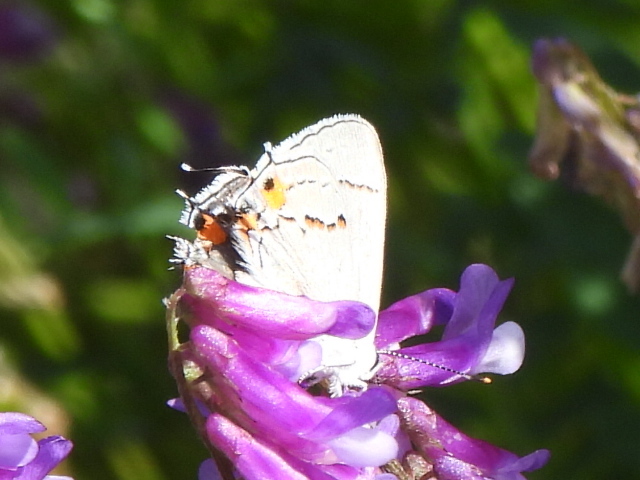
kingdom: Animalia
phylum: Arthropoda
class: Insecta
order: Lepidoptera
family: Lycaenidae
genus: Strymon
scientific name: Strymon melinus
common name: Gray hairstreak
